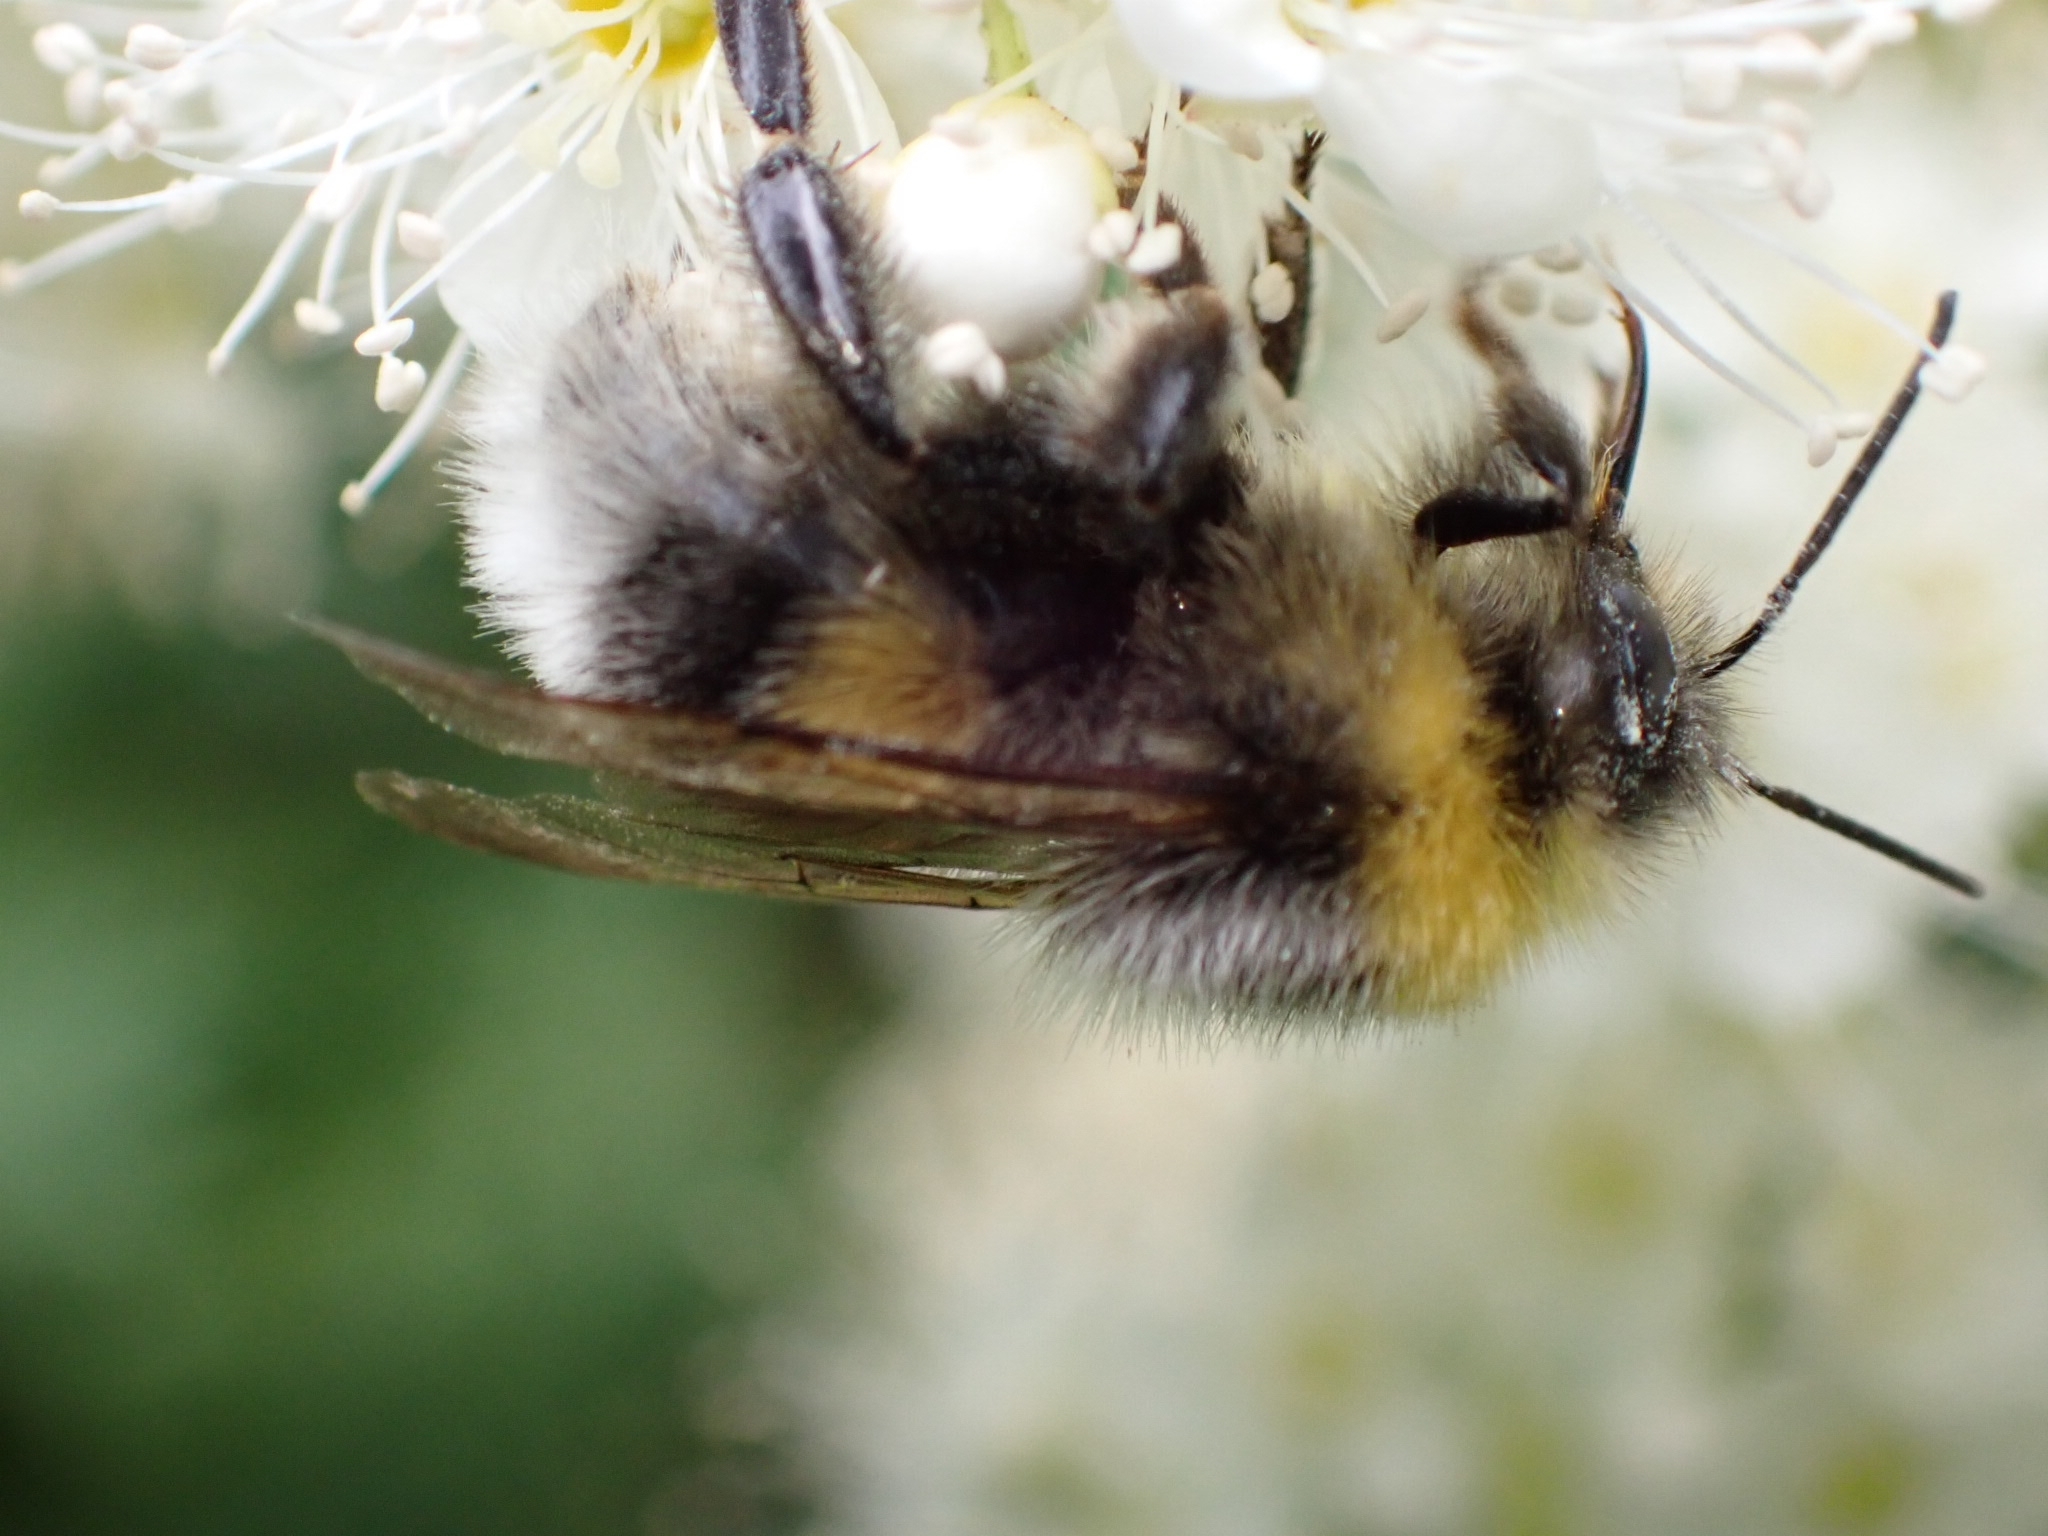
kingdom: Animalia
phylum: Arthropoda
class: Insecta
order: Hymenoptera
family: Apidae
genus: Bombus
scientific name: Bombus lucorum
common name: White-tailed bumblebee
